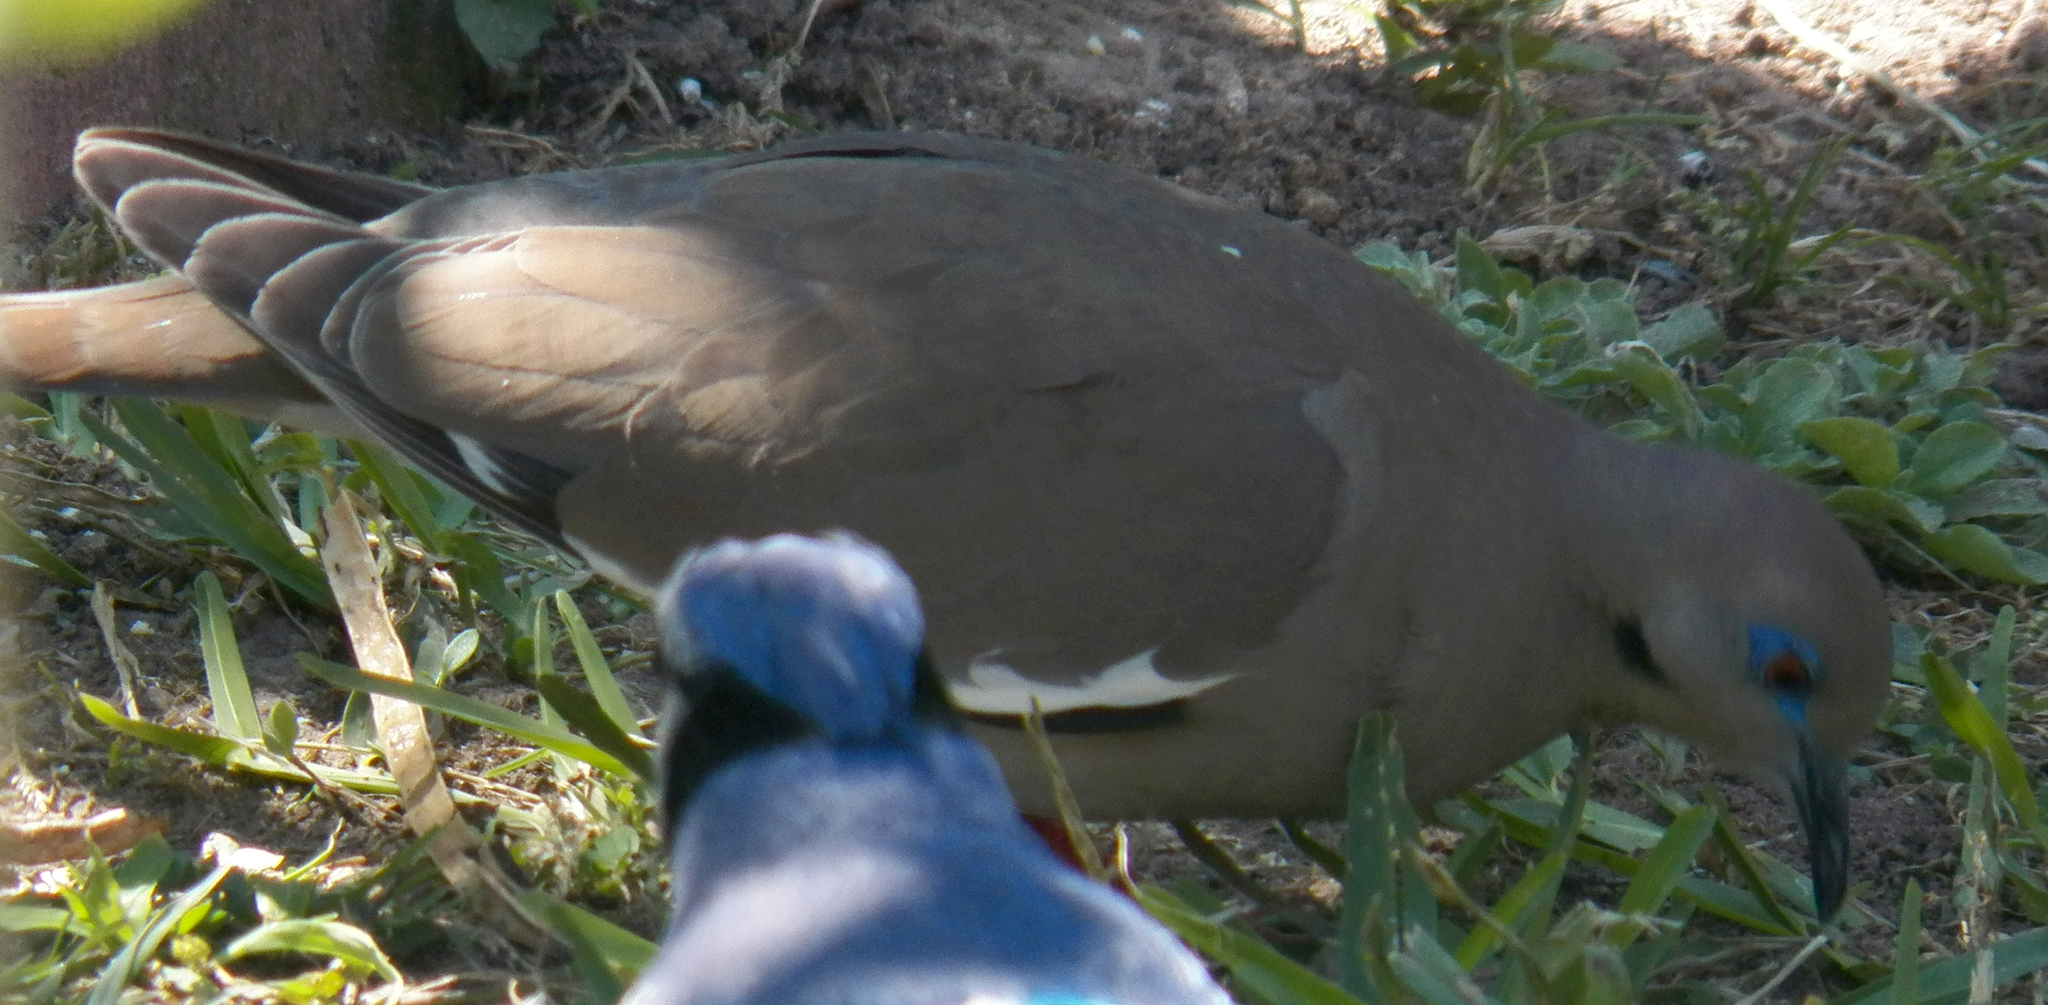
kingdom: Animalia
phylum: Chordata
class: Aves
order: Columbiformes
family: Columbidae
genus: Zenaida
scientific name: Zenaida asiatica
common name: White-winged dove
